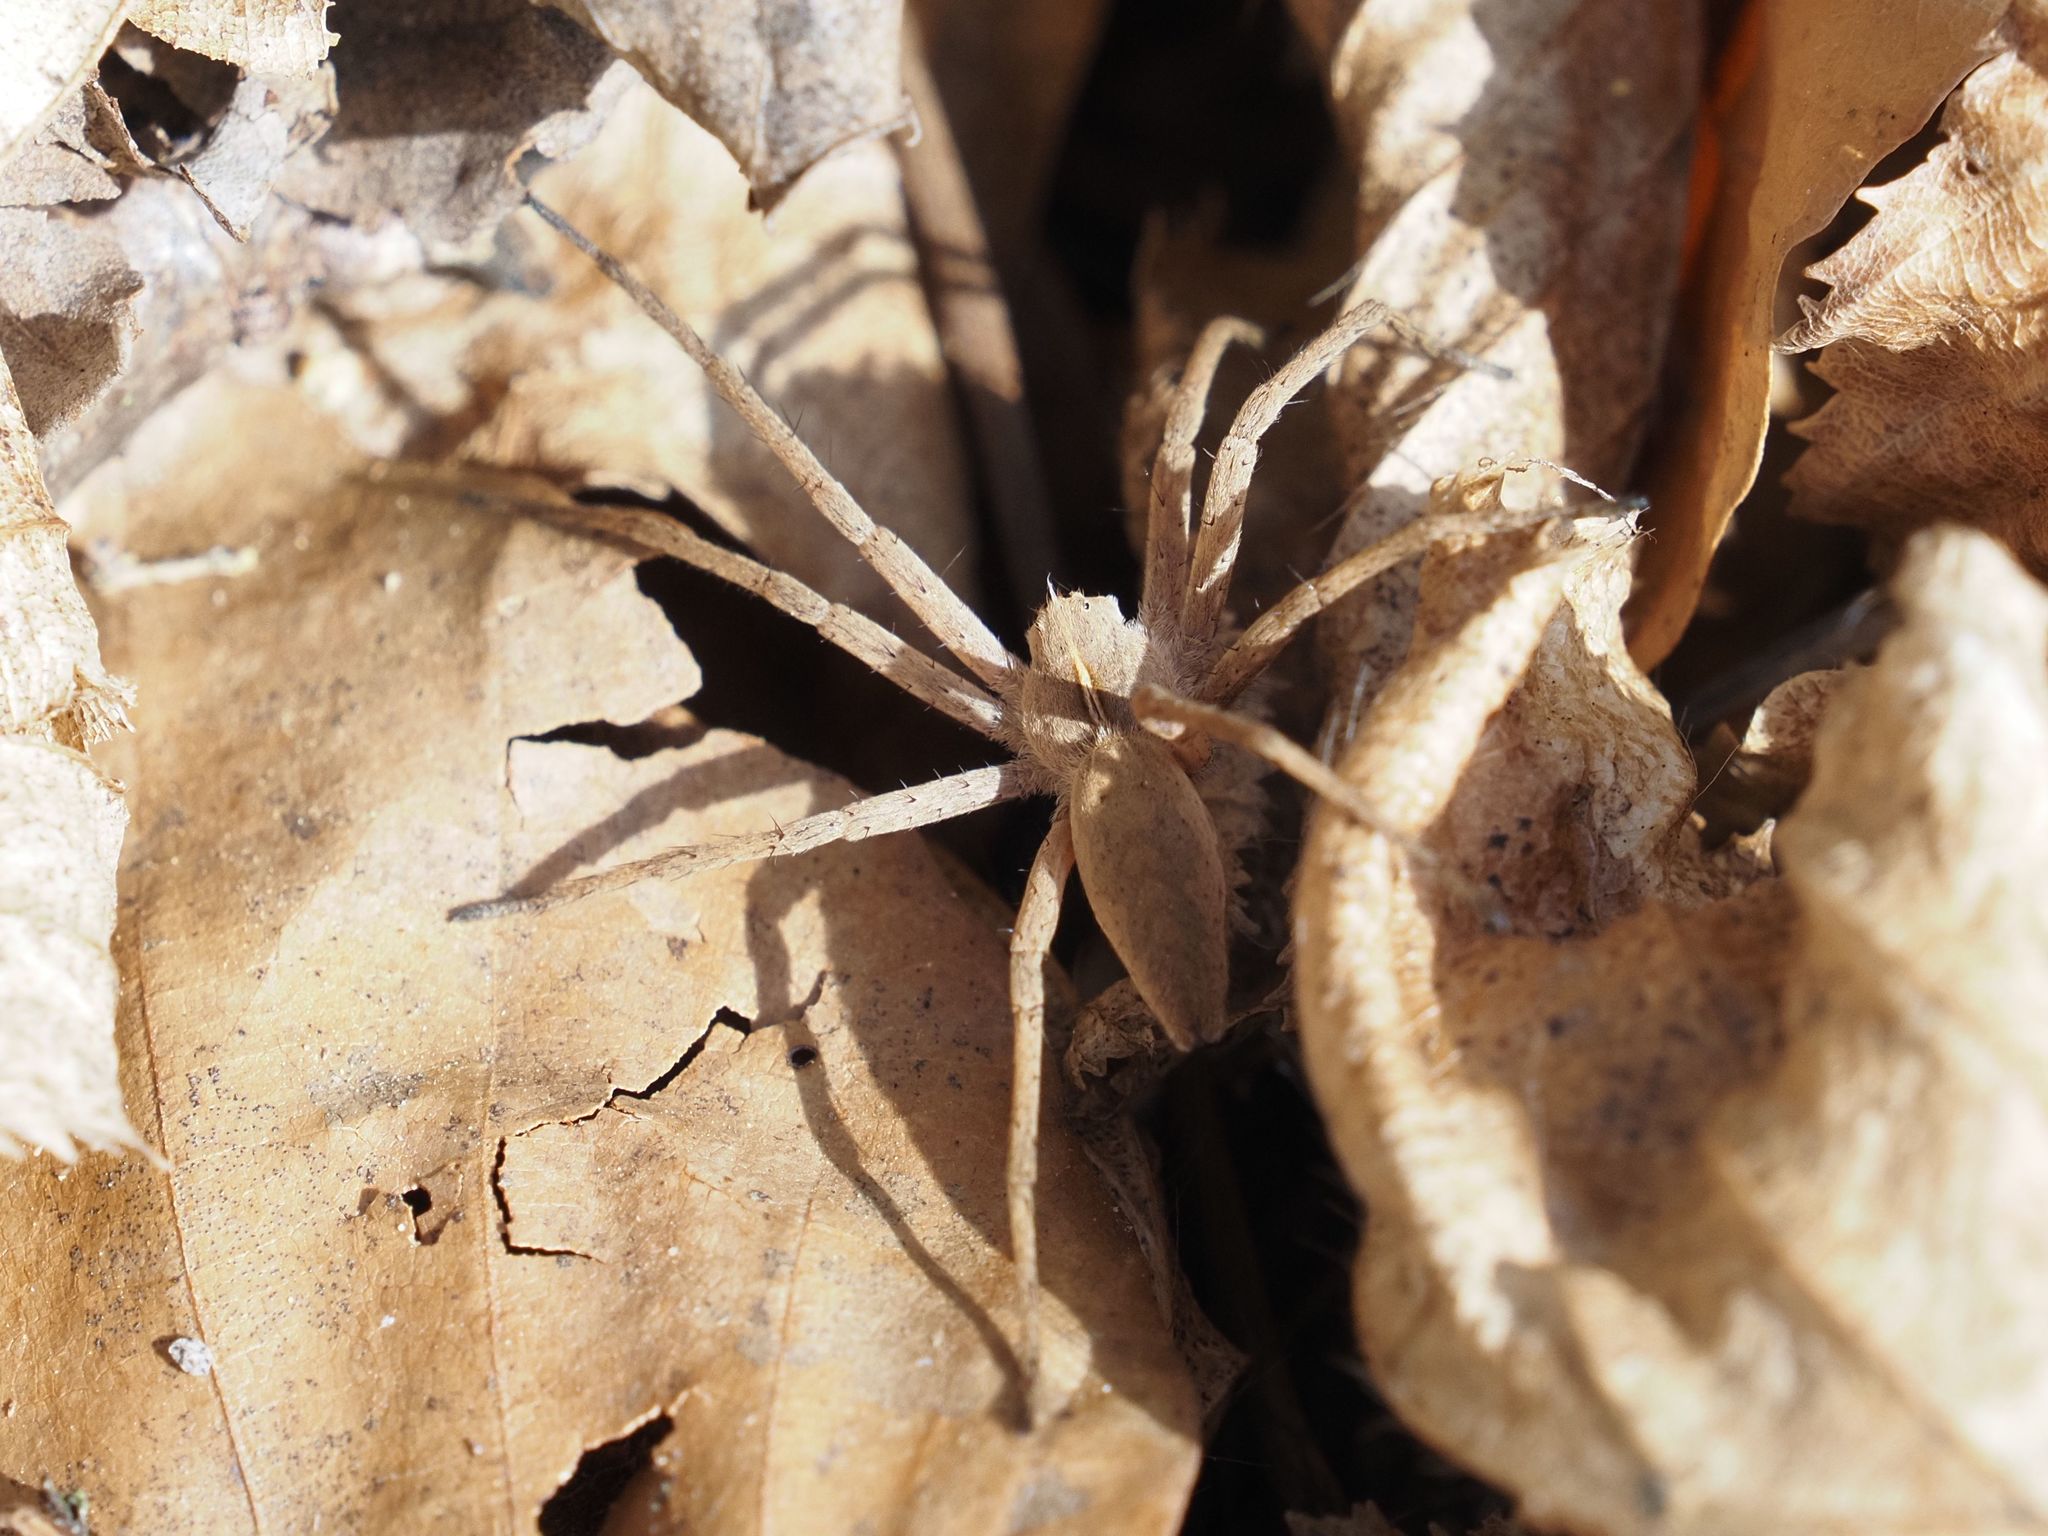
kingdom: Animalia
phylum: Arthropoda
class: Arachnida
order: Araneae
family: Pisauridae
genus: Pisaura
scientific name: Pisaura mirabilis
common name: Tent spider
